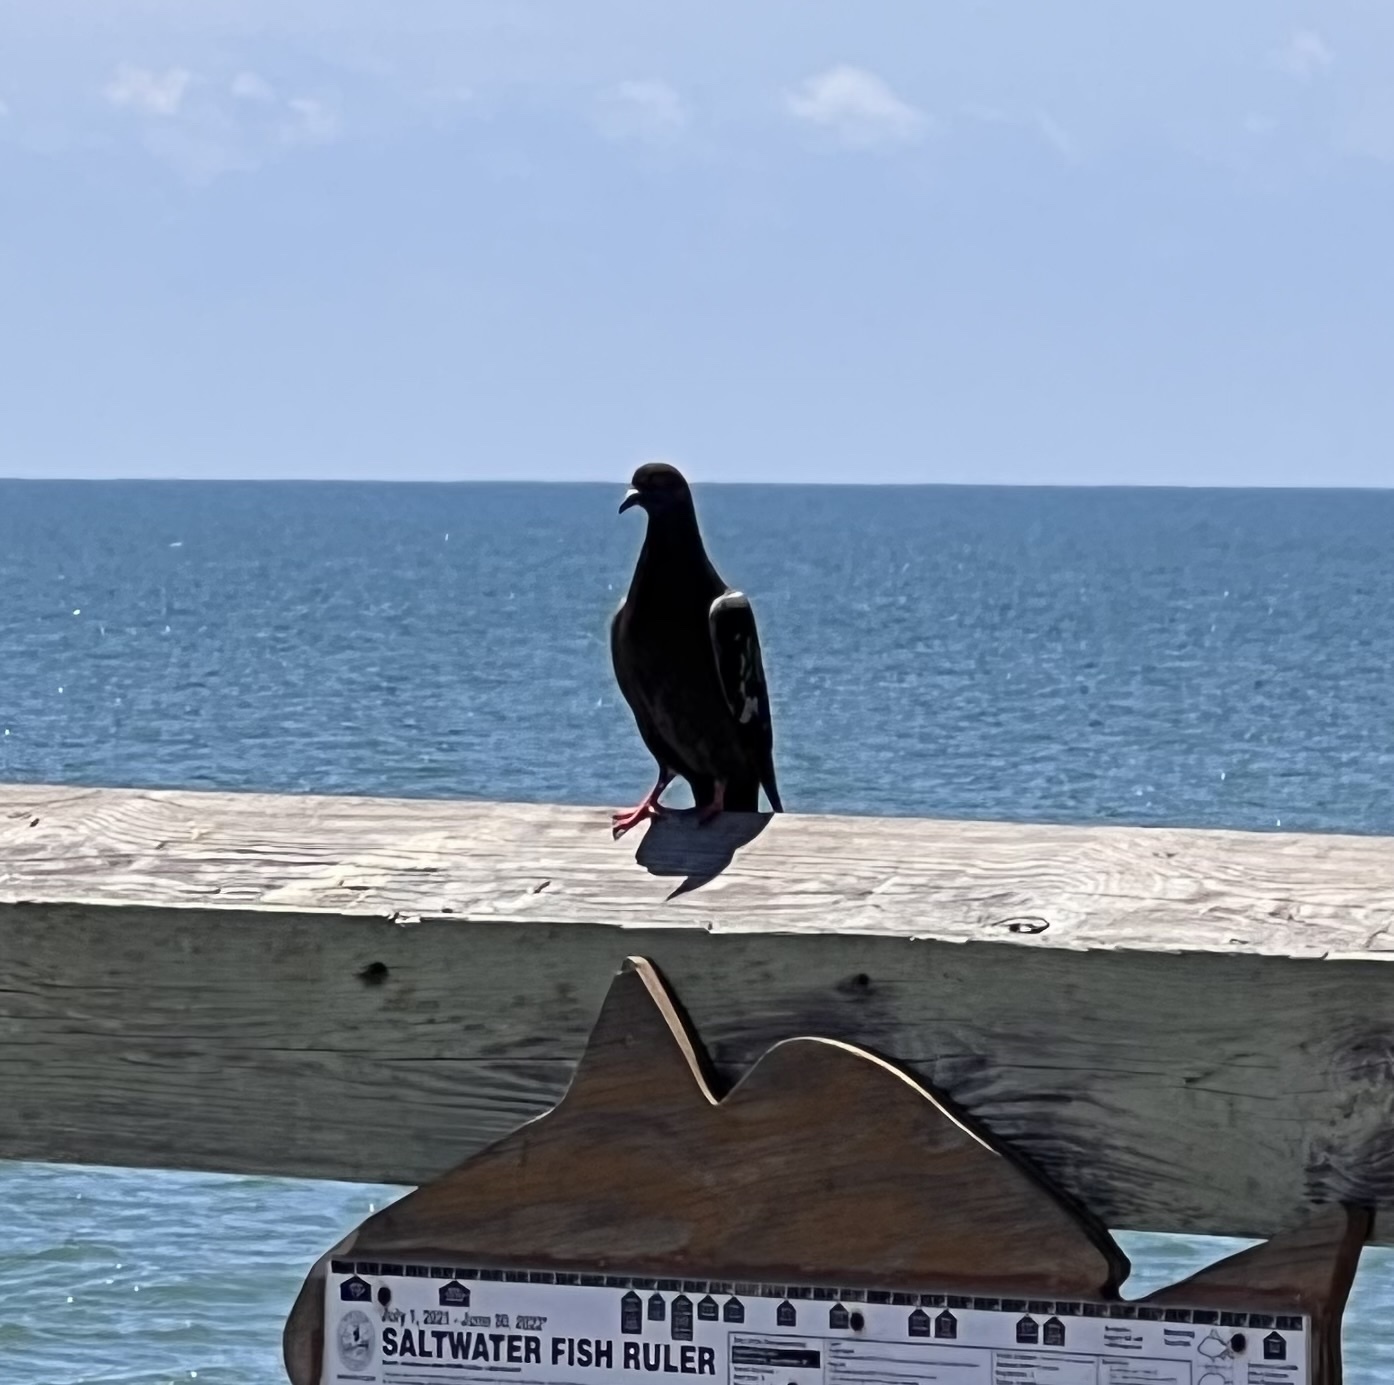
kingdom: Animalia
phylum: Chordata
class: Aves
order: Columbiformes
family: Columbidae
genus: Columba
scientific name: Columba livia
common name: Rock pigeon
